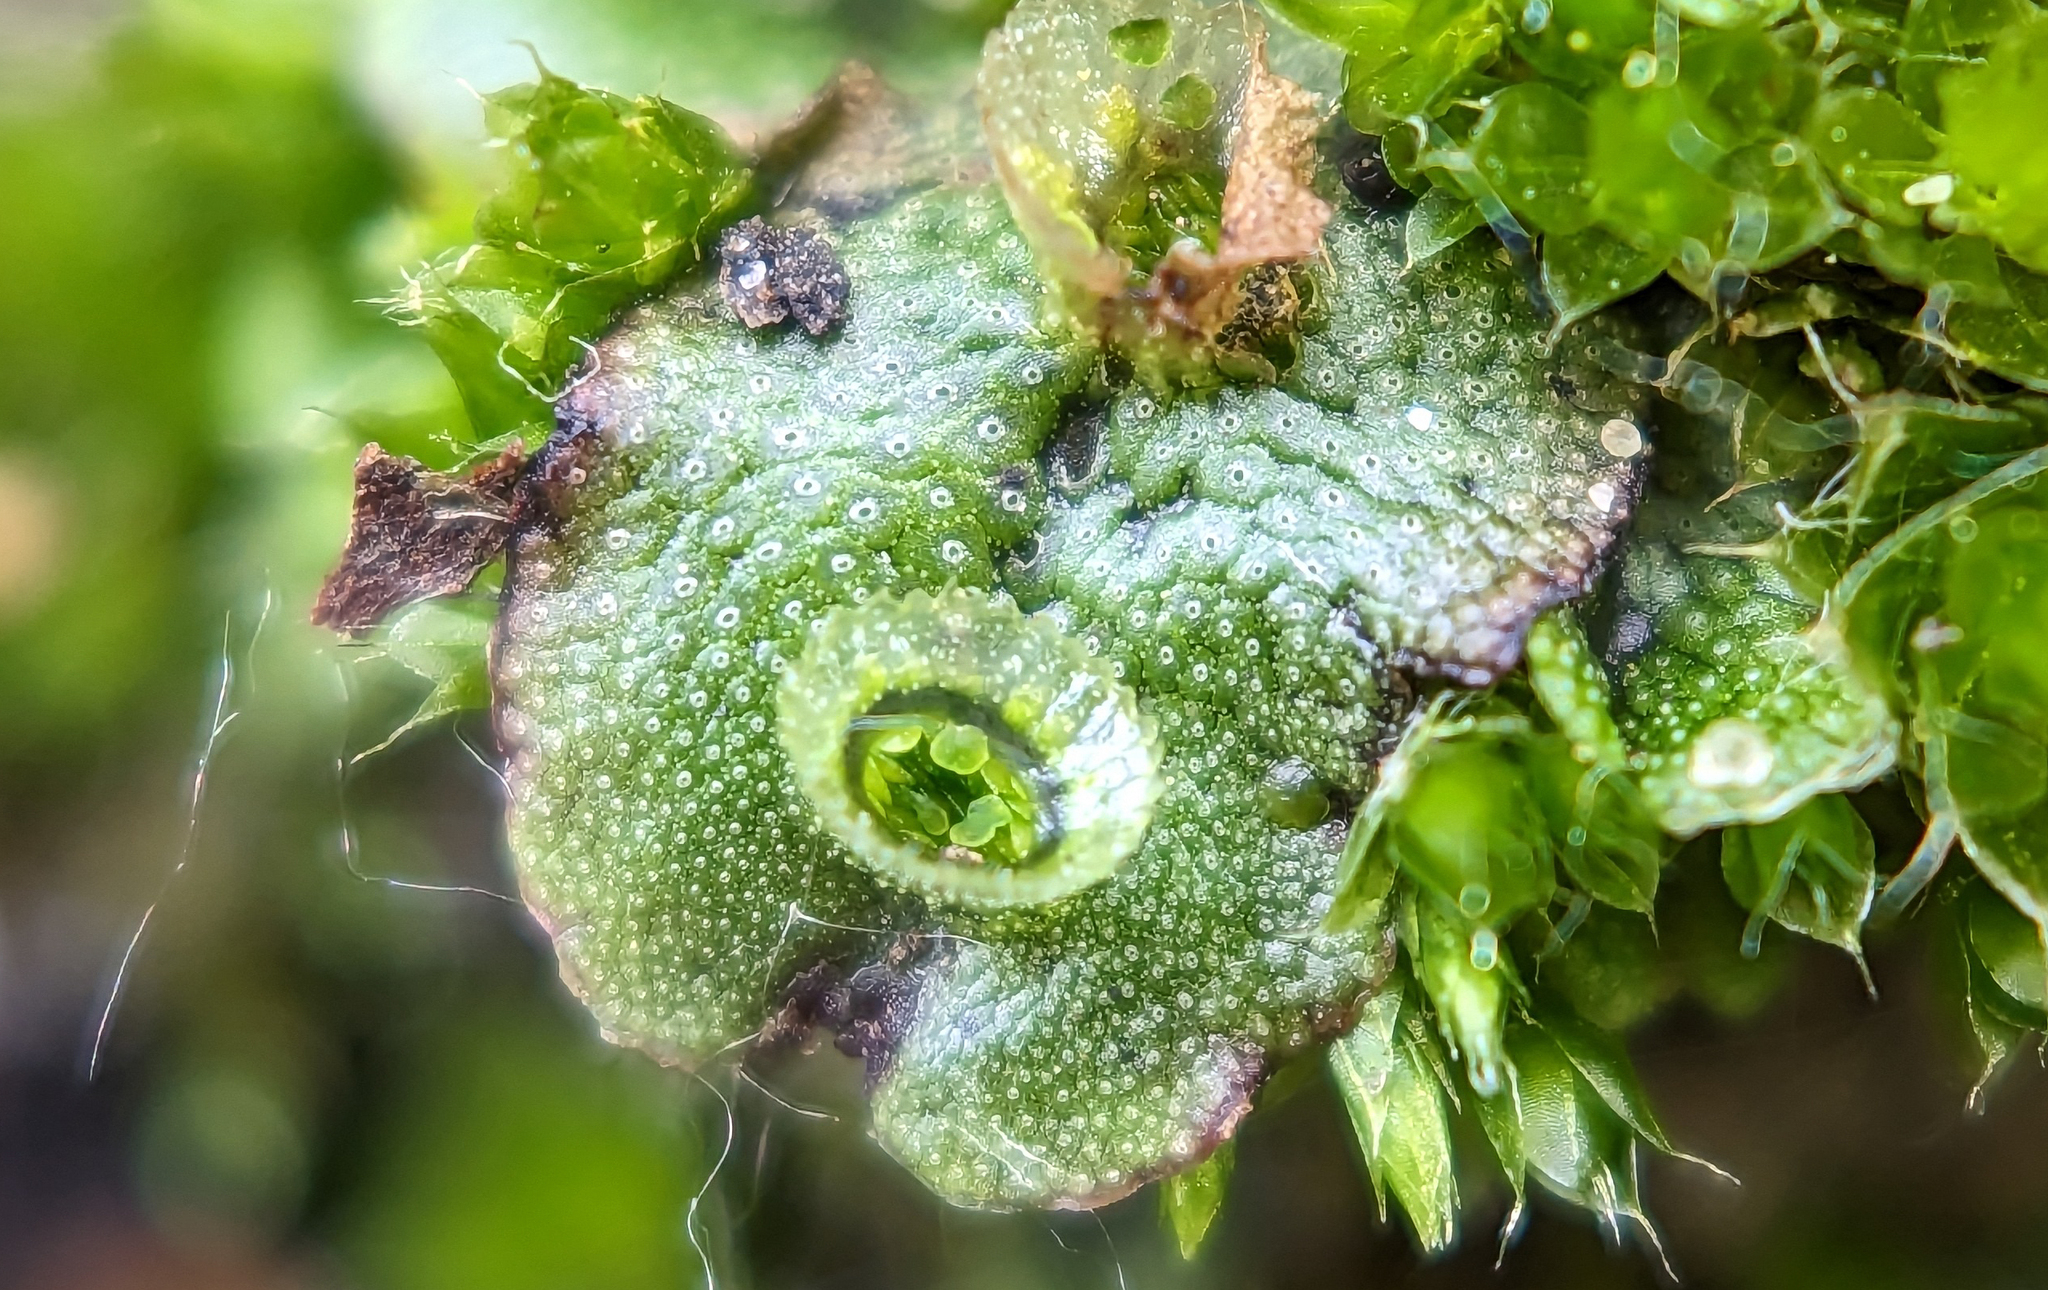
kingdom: Plantae
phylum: Marchantiophyta
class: Marchantiopsida
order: Marchantiales
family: Marchantiaceae
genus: Marchantia
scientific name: Marchantia polymorpha
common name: Common liverwort
